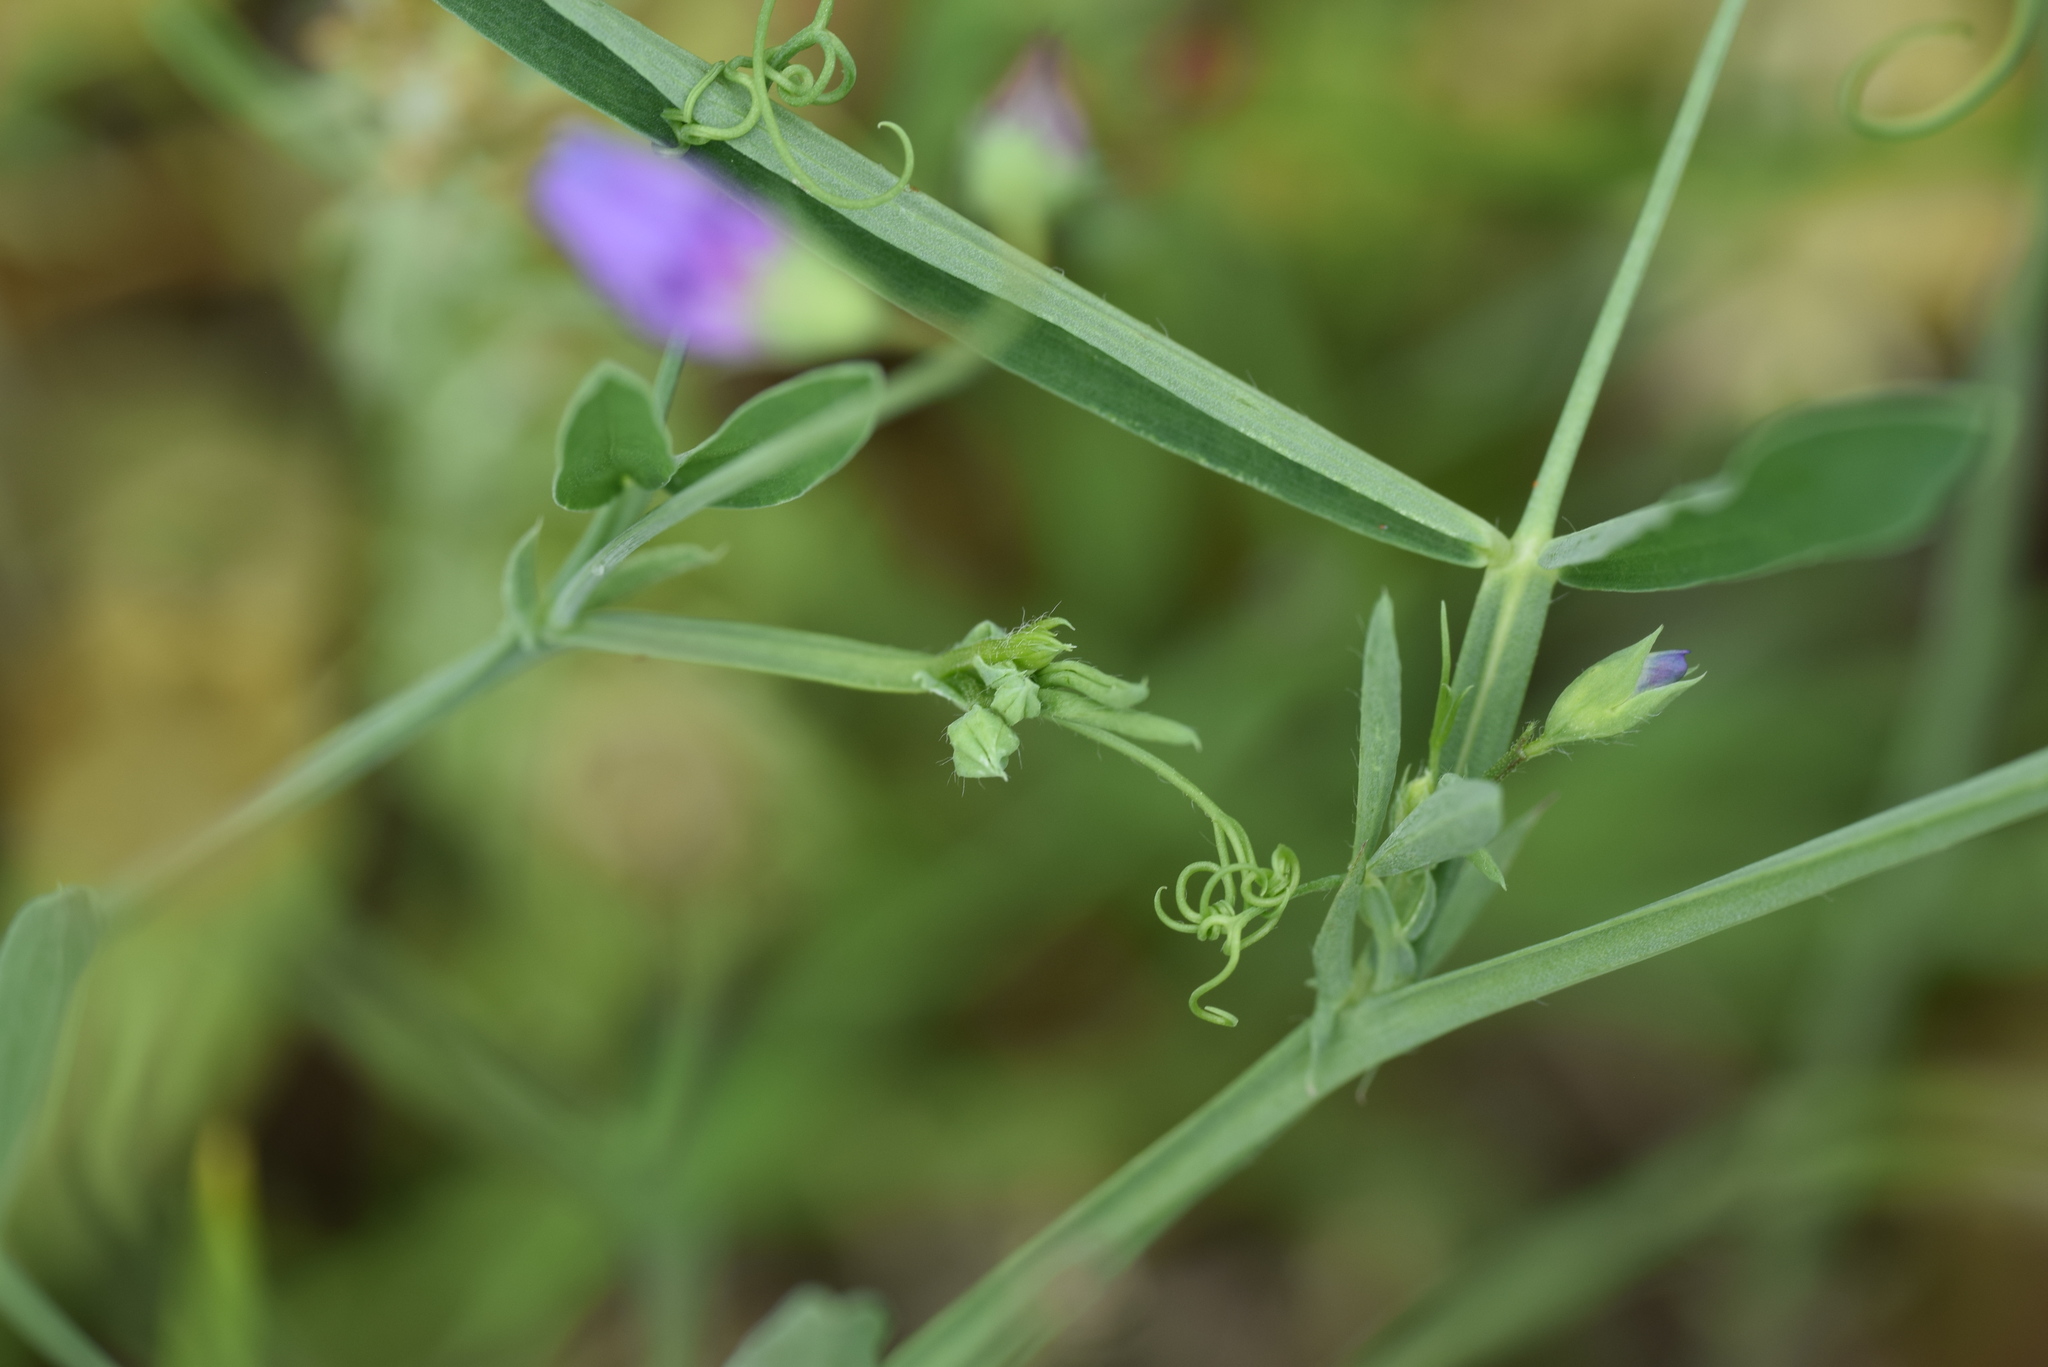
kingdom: Plantae
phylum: Tracheophyta
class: Magnoliopsida
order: Fabales
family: Fabaceae
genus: Lathyrus
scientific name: Lathyrus hirsutus
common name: Hairy vetchling
